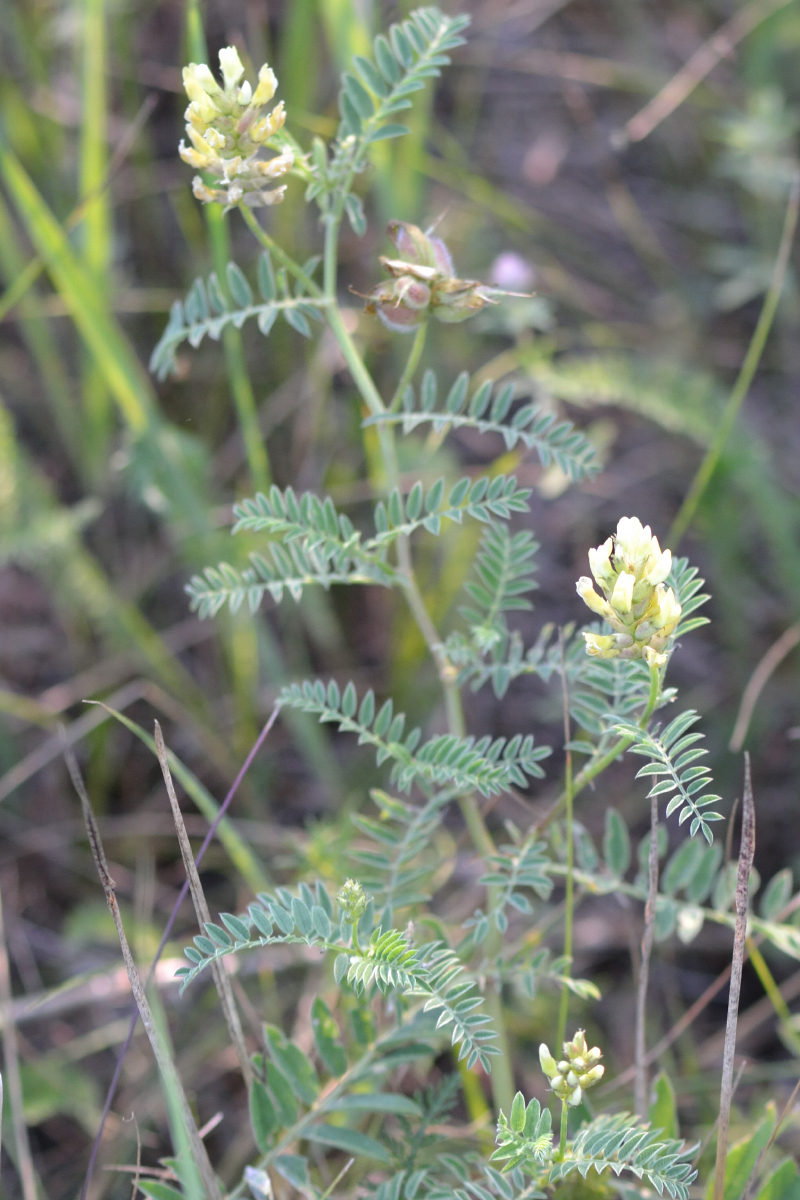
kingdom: Plantae
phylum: Tracheophyta
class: Magnoliopsida
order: Fabales
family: Fabaceae
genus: Astragalus
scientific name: Astragalus cicer
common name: Chick-pea milk-vetch
